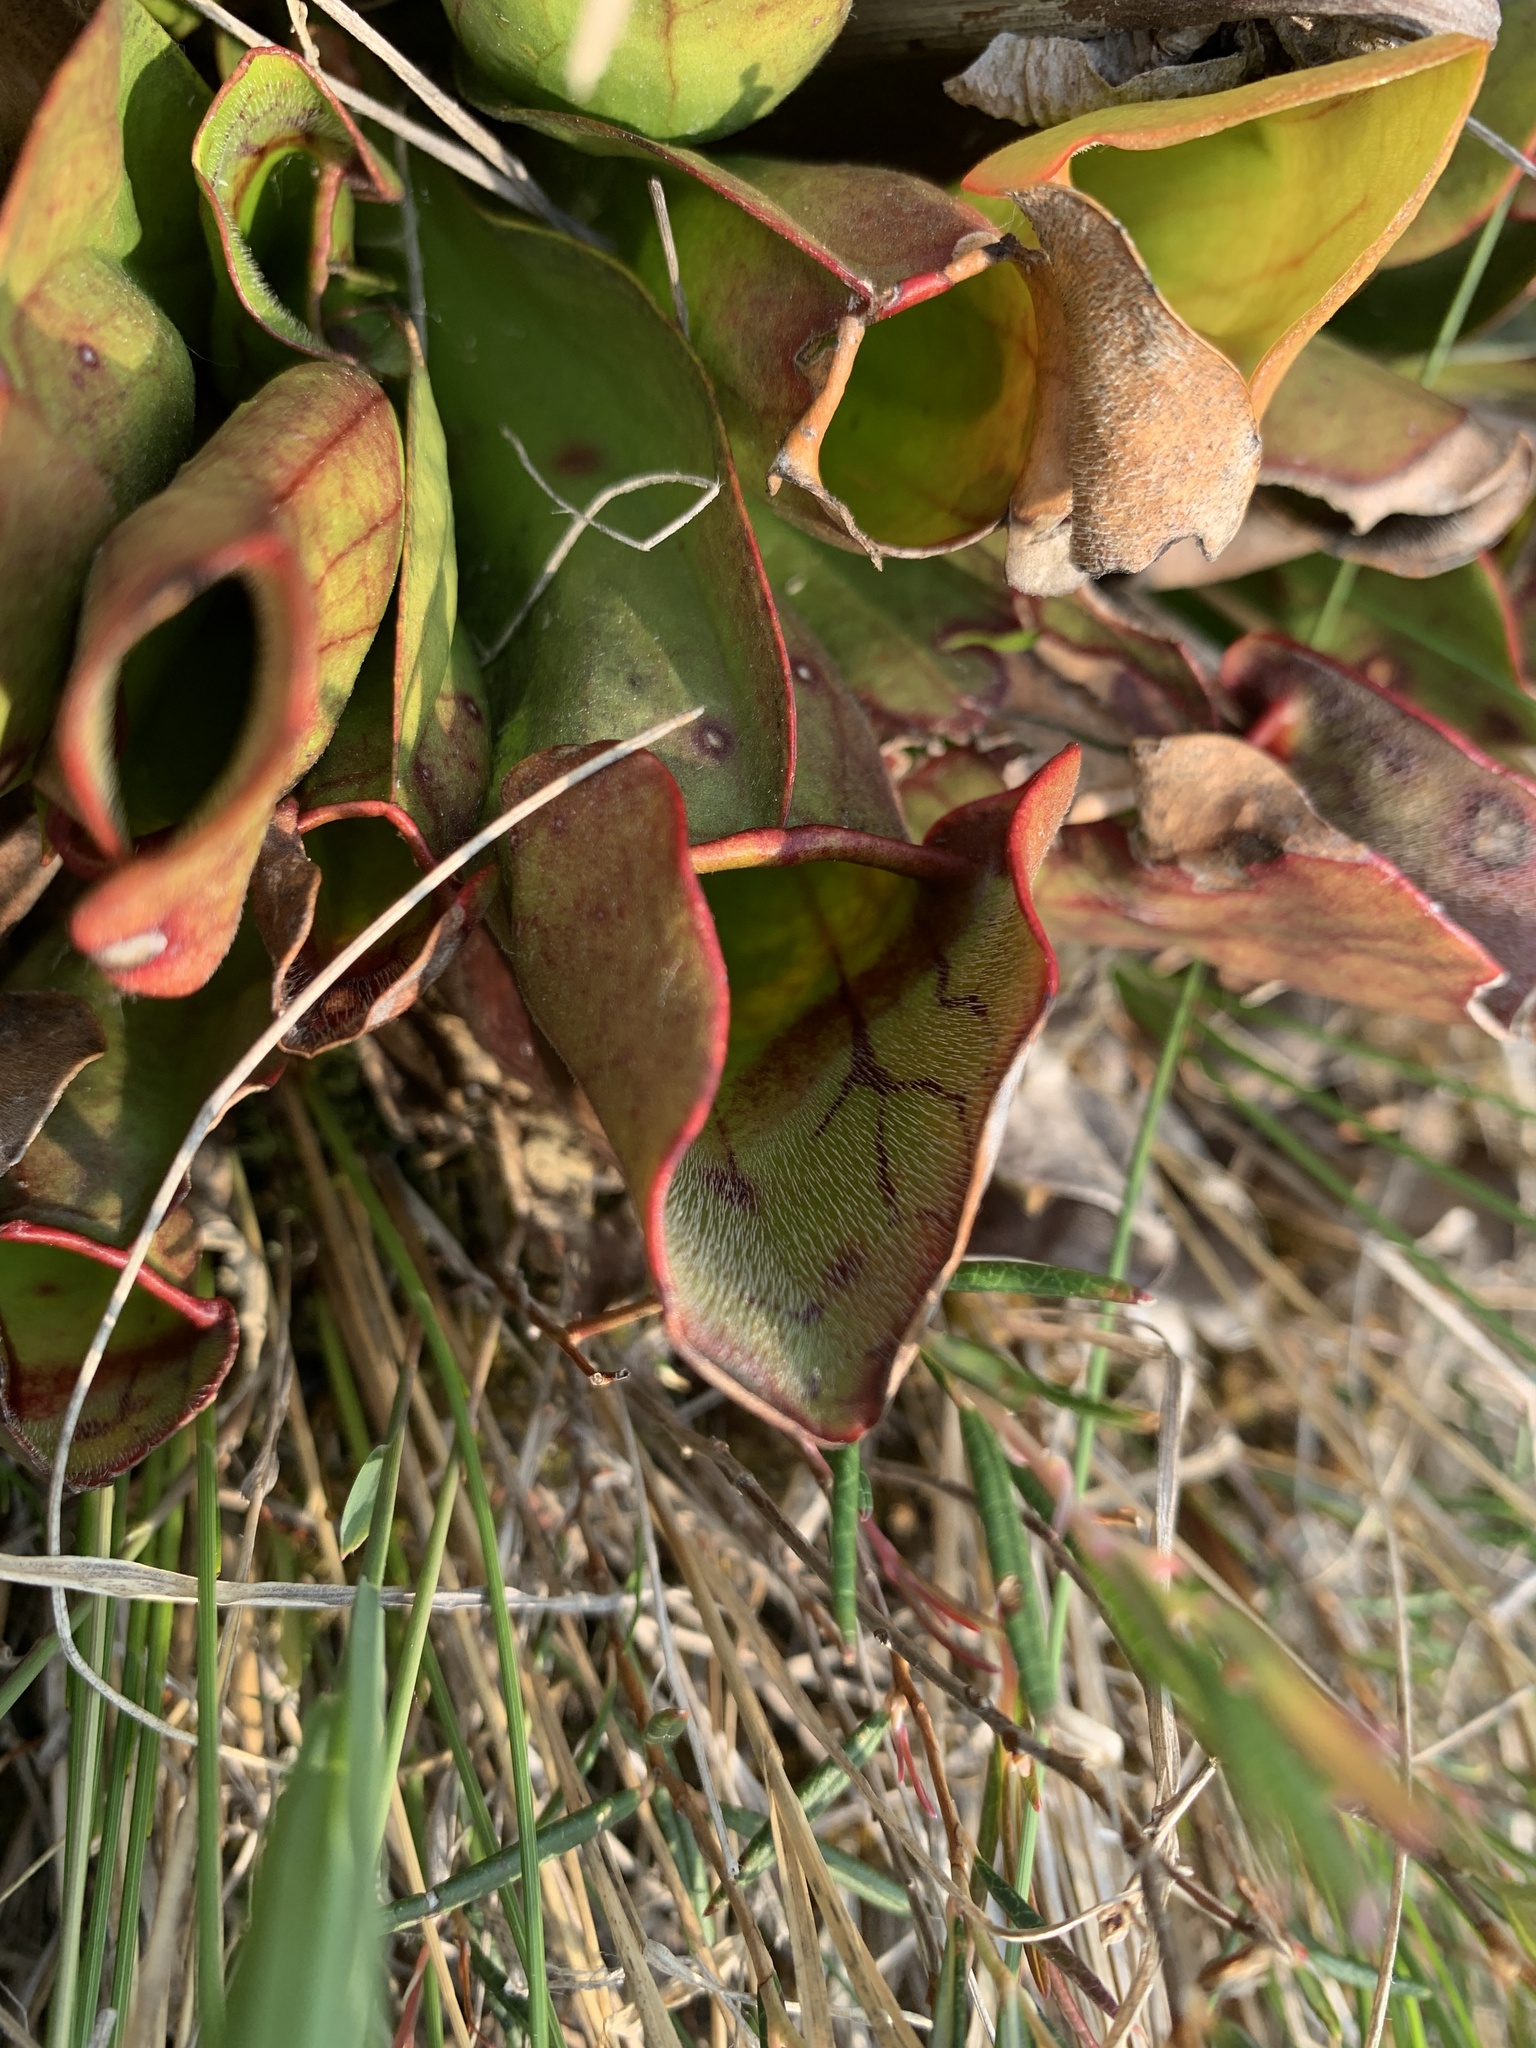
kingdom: Plantae
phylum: Tracheophyta
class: Magnoliopsida
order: Ericales
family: Sarraceniaceae
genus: Sarracenia
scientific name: Sarracenia purpurea
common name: Pitcherplant
